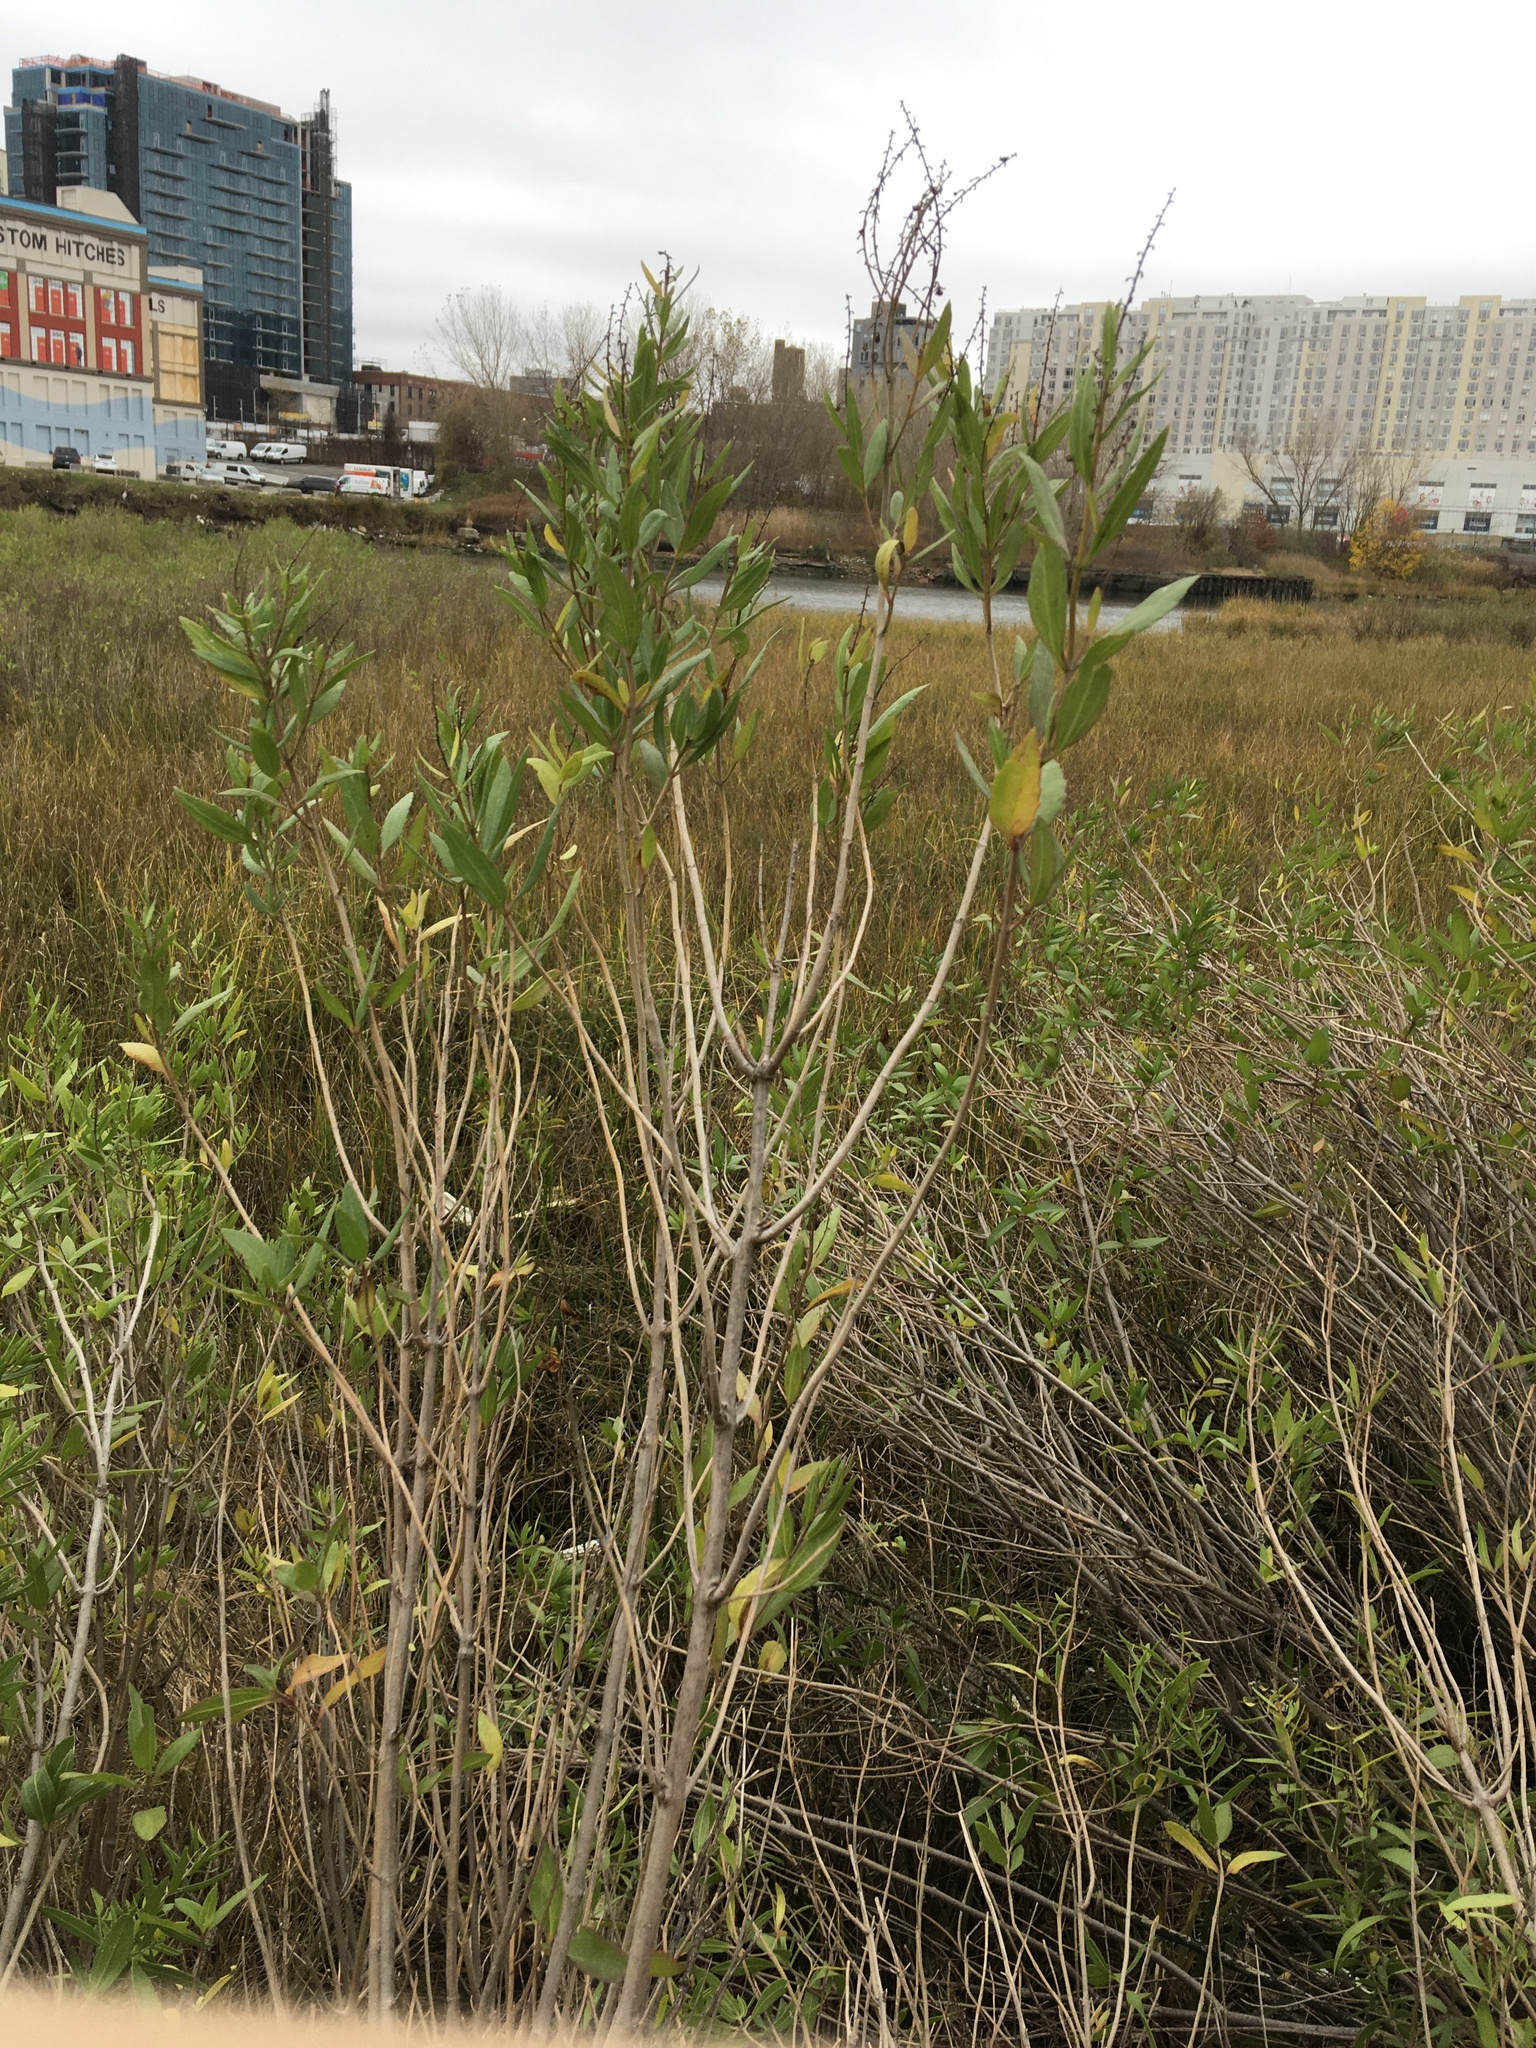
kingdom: Plantae
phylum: Tracheophyta
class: Magnoliopsida
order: Asterales
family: Asteraceae
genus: Iva
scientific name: Iva frutescens
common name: Big-leaved marsh-elder
